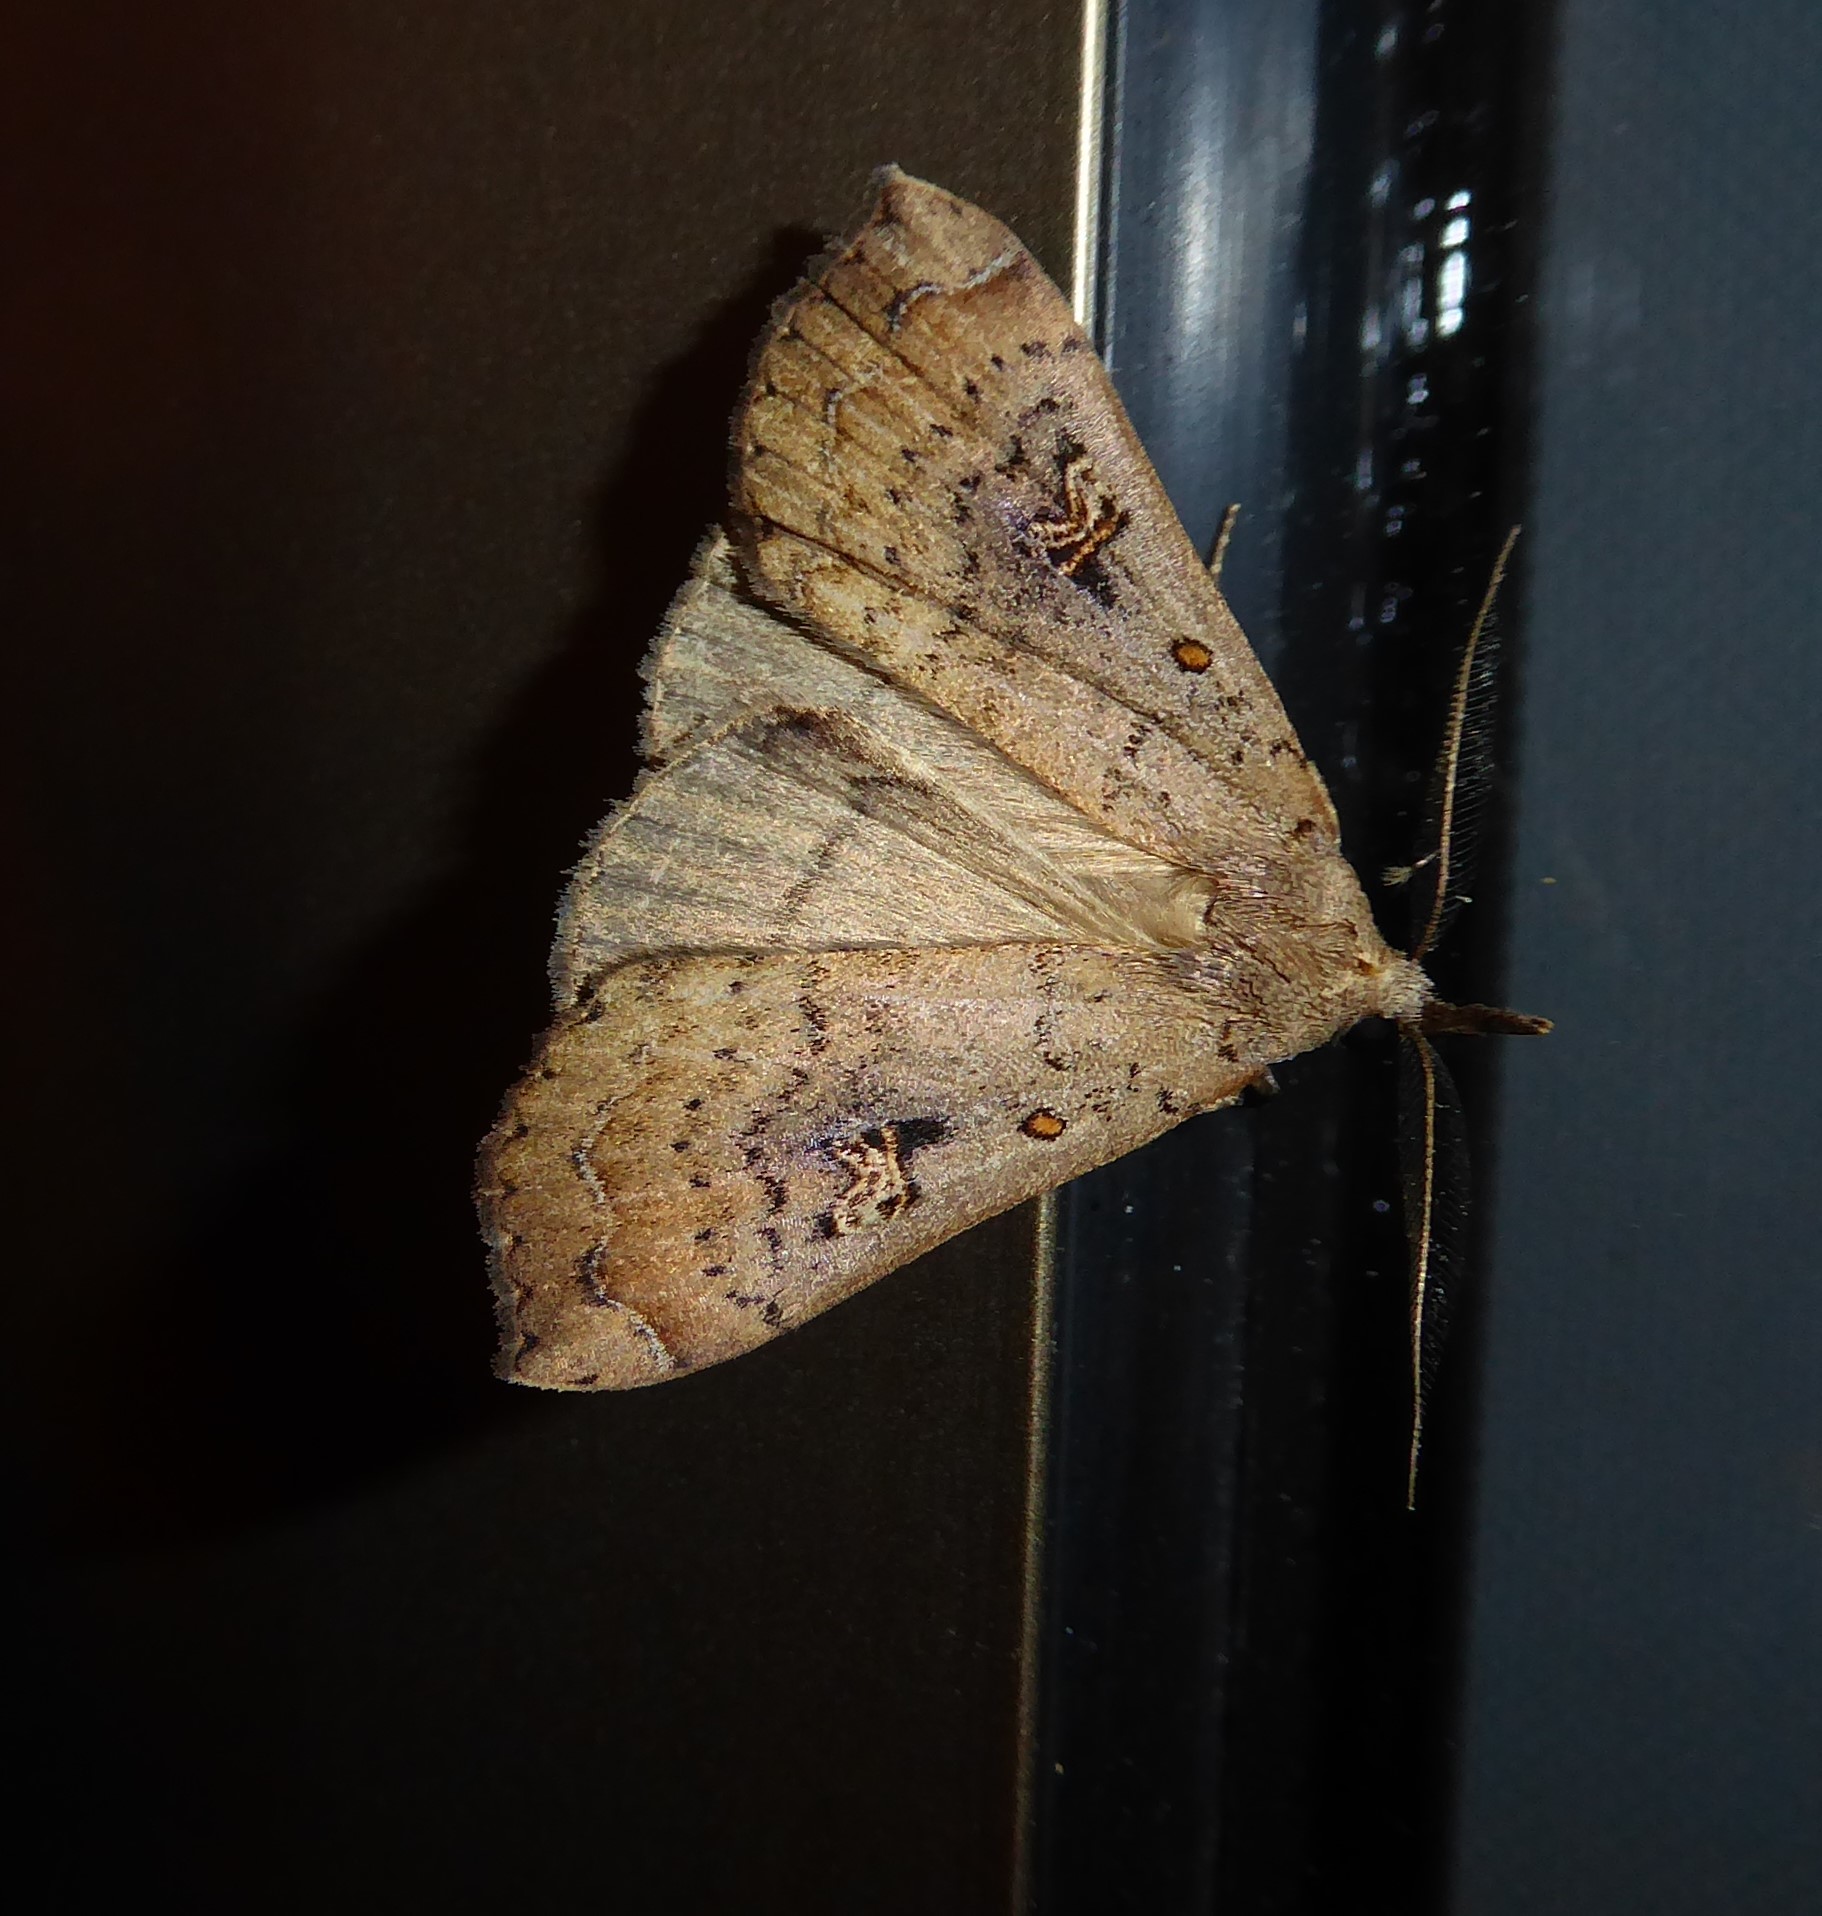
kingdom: Animalia
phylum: Arthropoda
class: Insecta
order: Lepidoptera
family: Erebidae
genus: Rhapsa
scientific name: Rhapsa scotosialis
